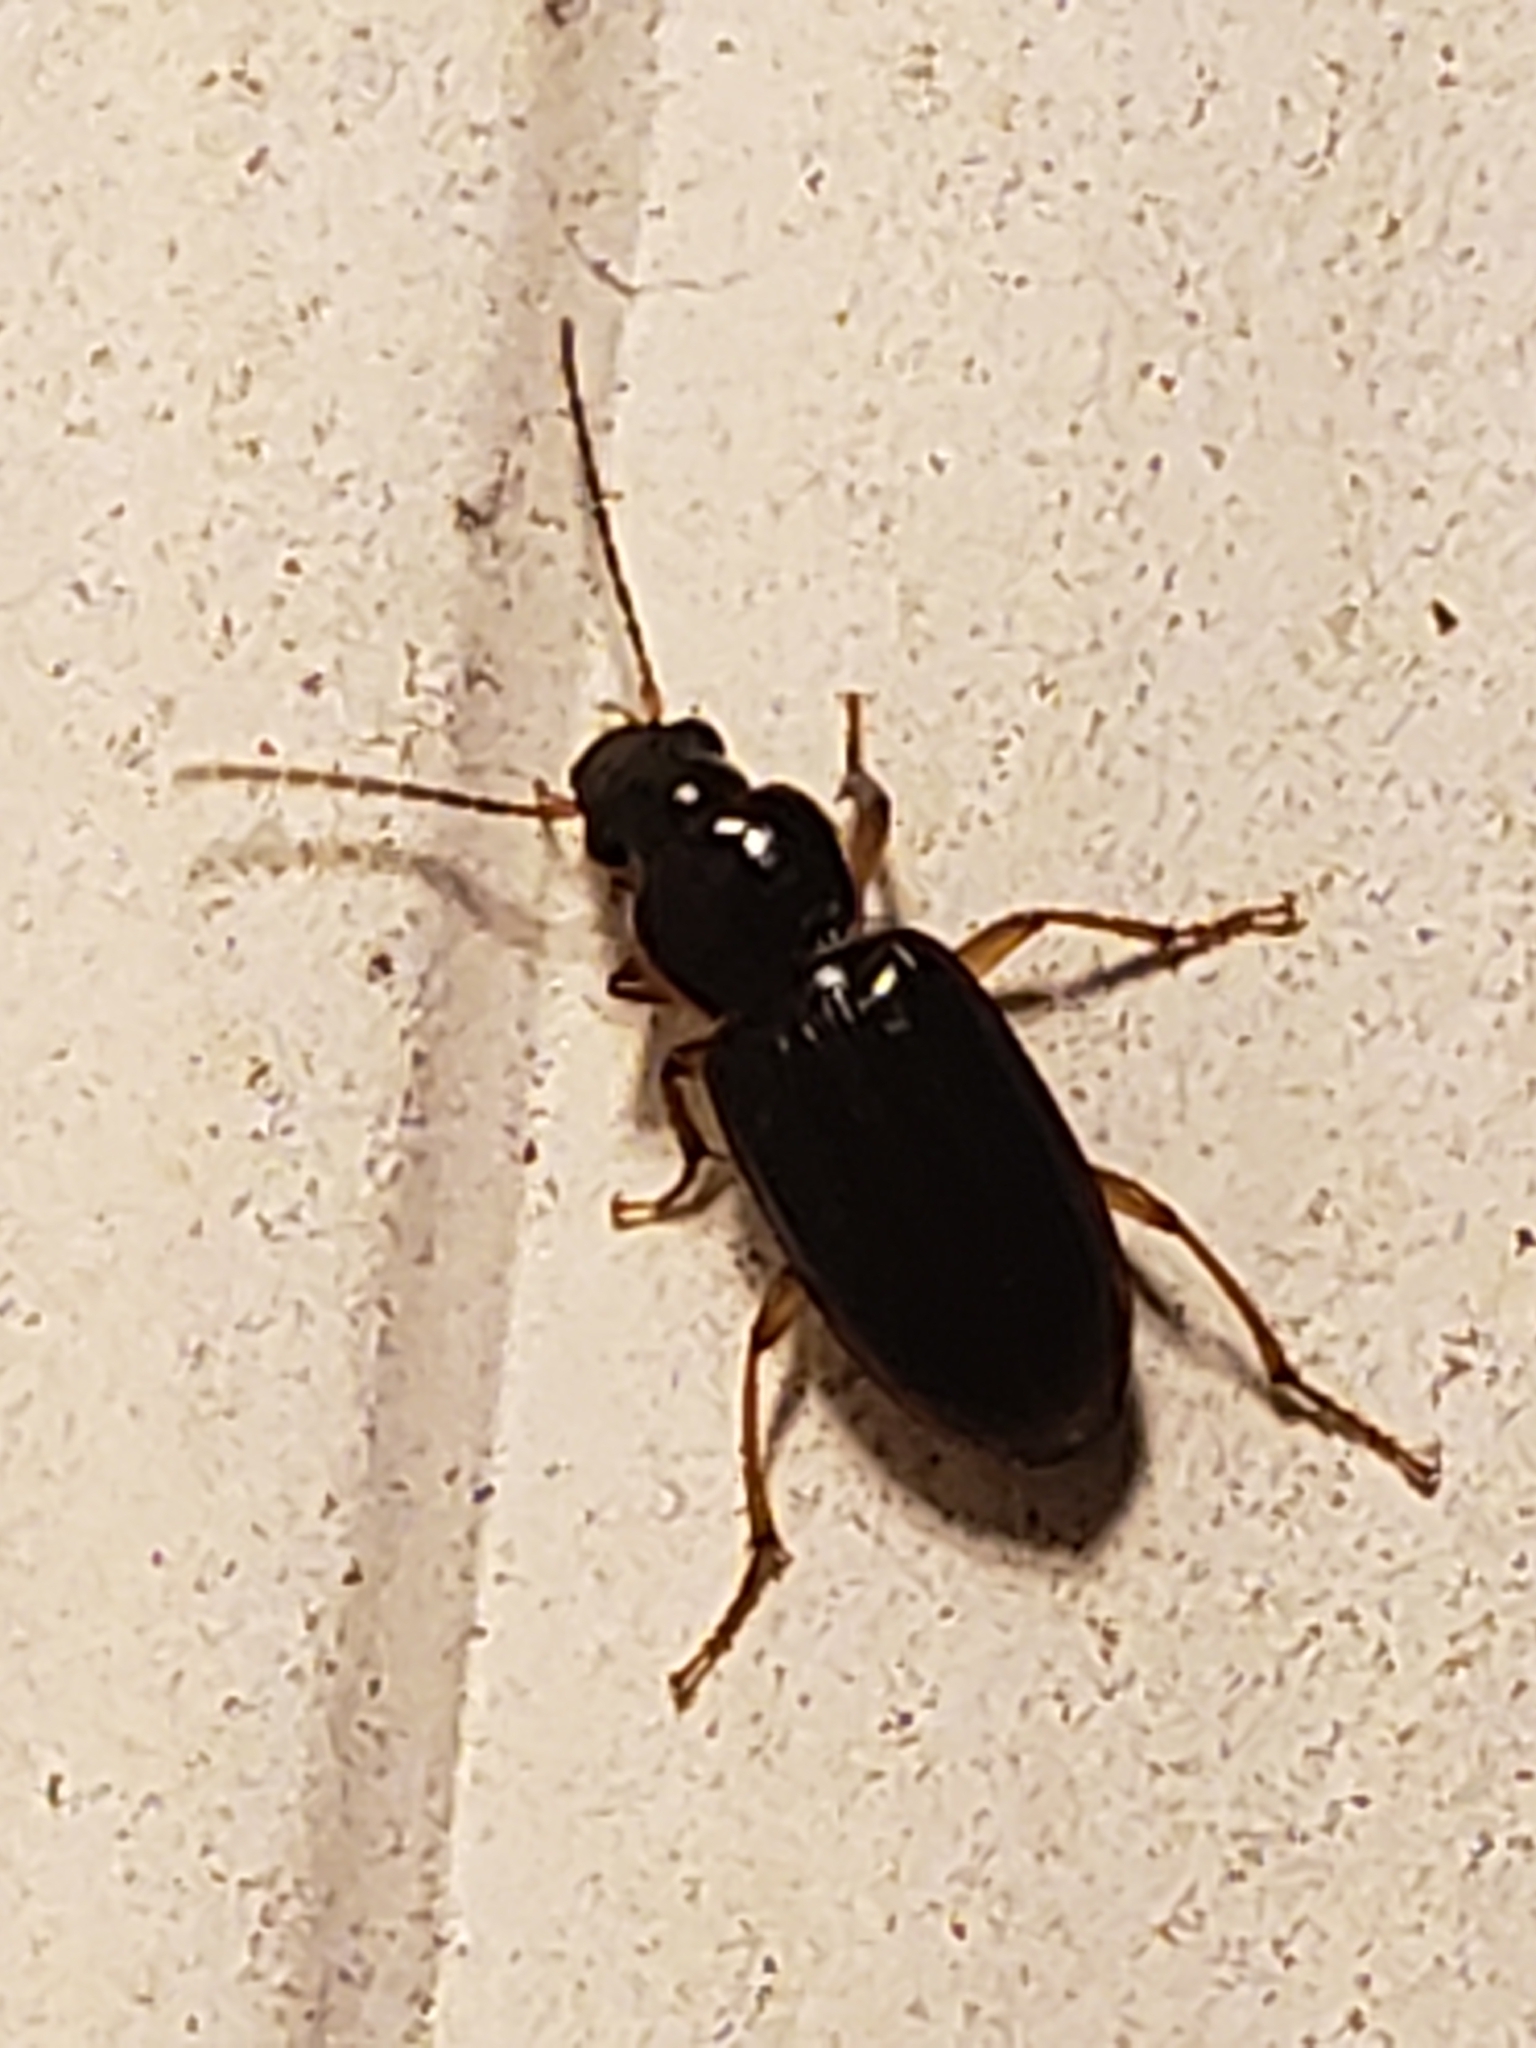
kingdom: Animalia
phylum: Arthropoda
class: Insecta
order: Coleoptera
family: Carabidae
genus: Stenolophus
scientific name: Stenolophus ochropezus
